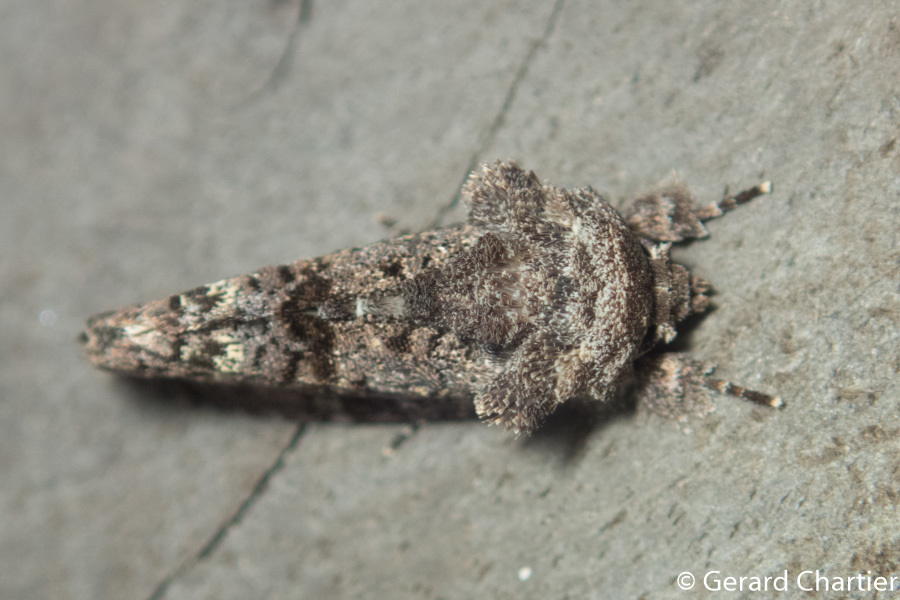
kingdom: Animalia
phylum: Arthropoda
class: Insecta
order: Lepidoptera
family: Noctuidae
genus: Paradiopa
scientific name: Paradiopa postfusca
